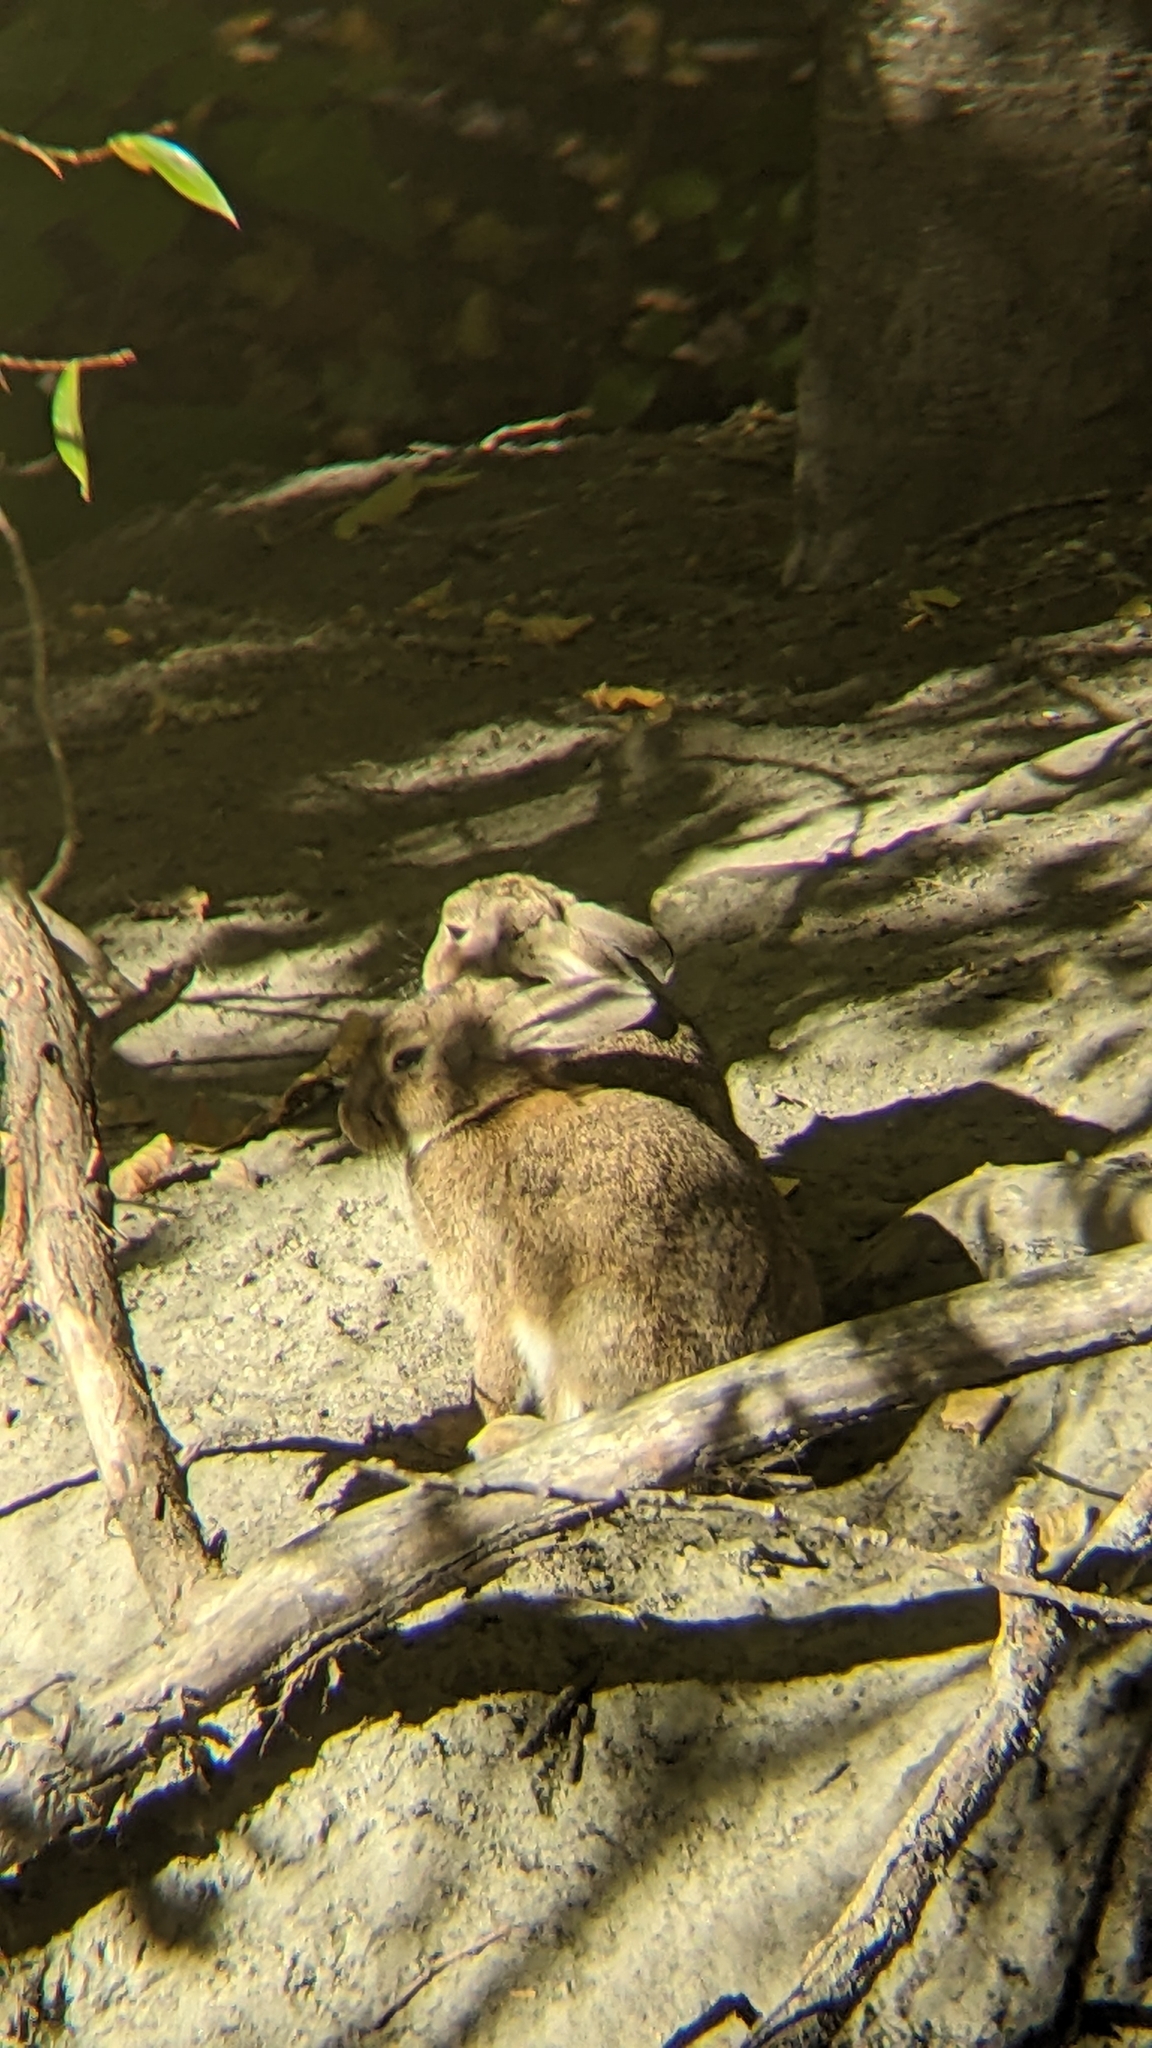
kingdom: Animalia
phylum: Chordata
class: Mammalia
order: Lagomorpha
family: Leporidae
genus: Oryctolagus
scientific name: Oryctolagus cuniculus
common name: European rabbit
